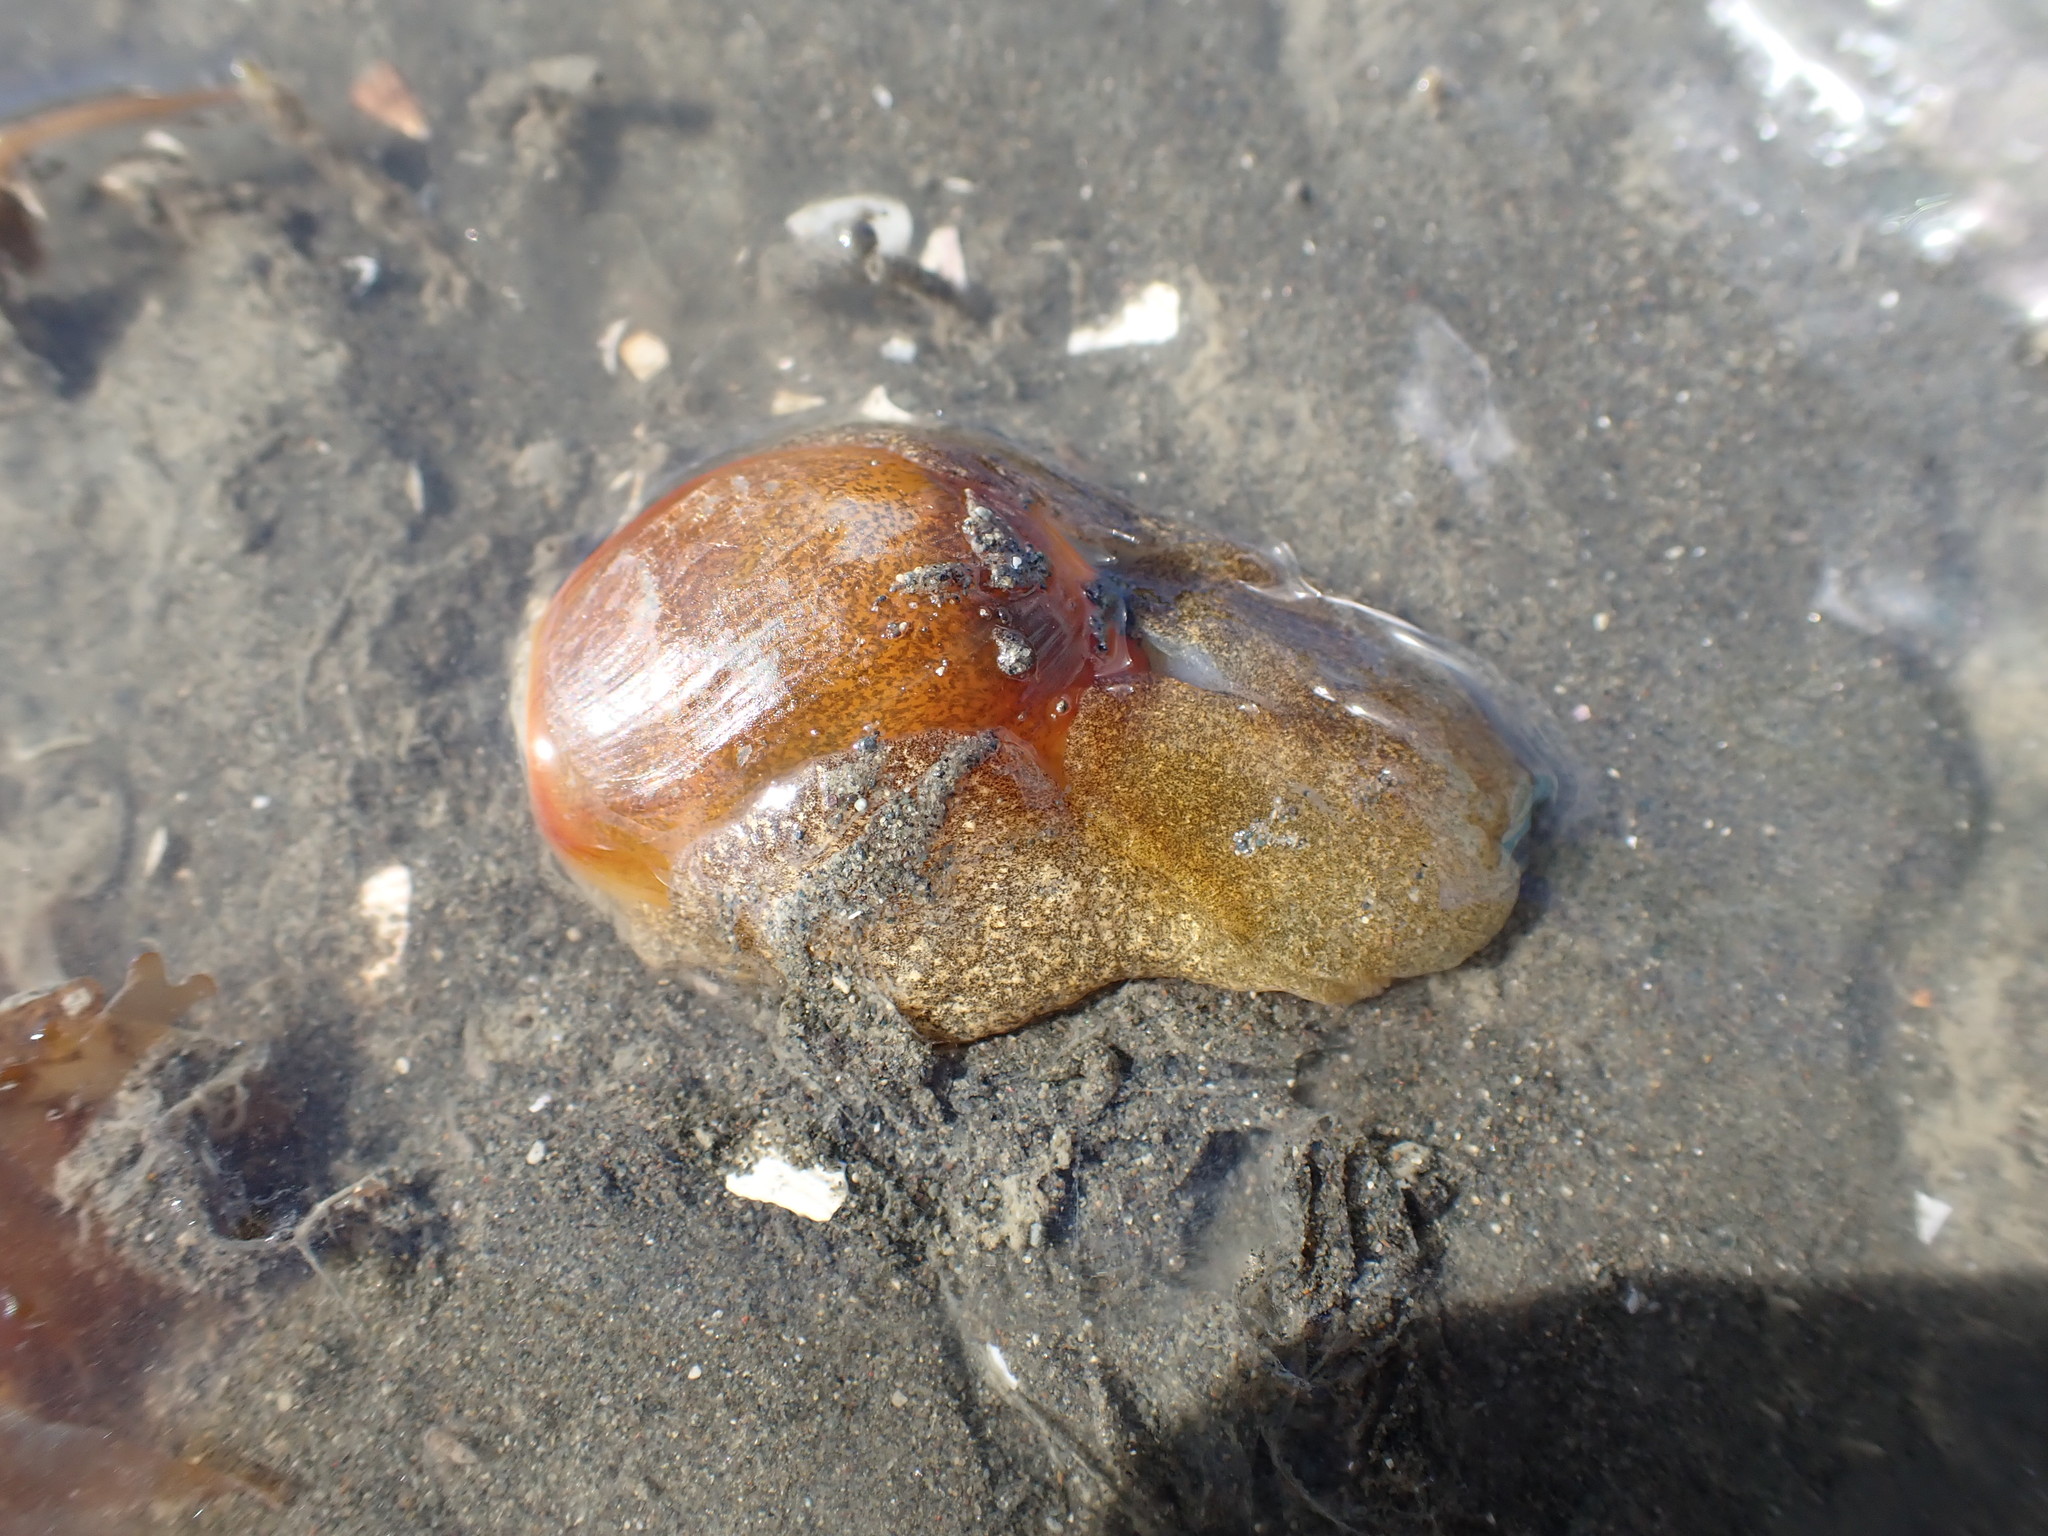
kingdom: Animalia
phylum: Mollusca
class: Gastropoda
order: Cephalaspidea
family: Haminoeidae
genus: Papawera
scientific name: Papawera zelandiae
